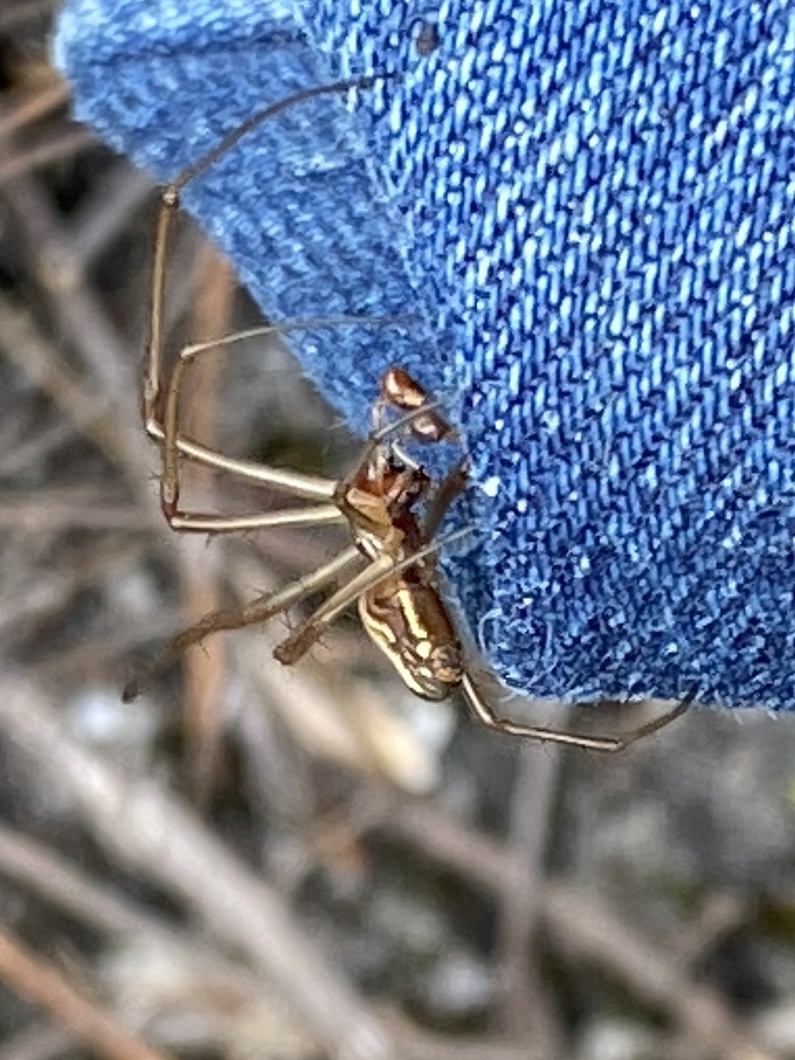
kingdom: Animalia
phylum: Arthropoda
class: Arachnida
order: Araneae
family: Tetragnathidae
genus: Leucauge
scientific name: Leucauge festiva
